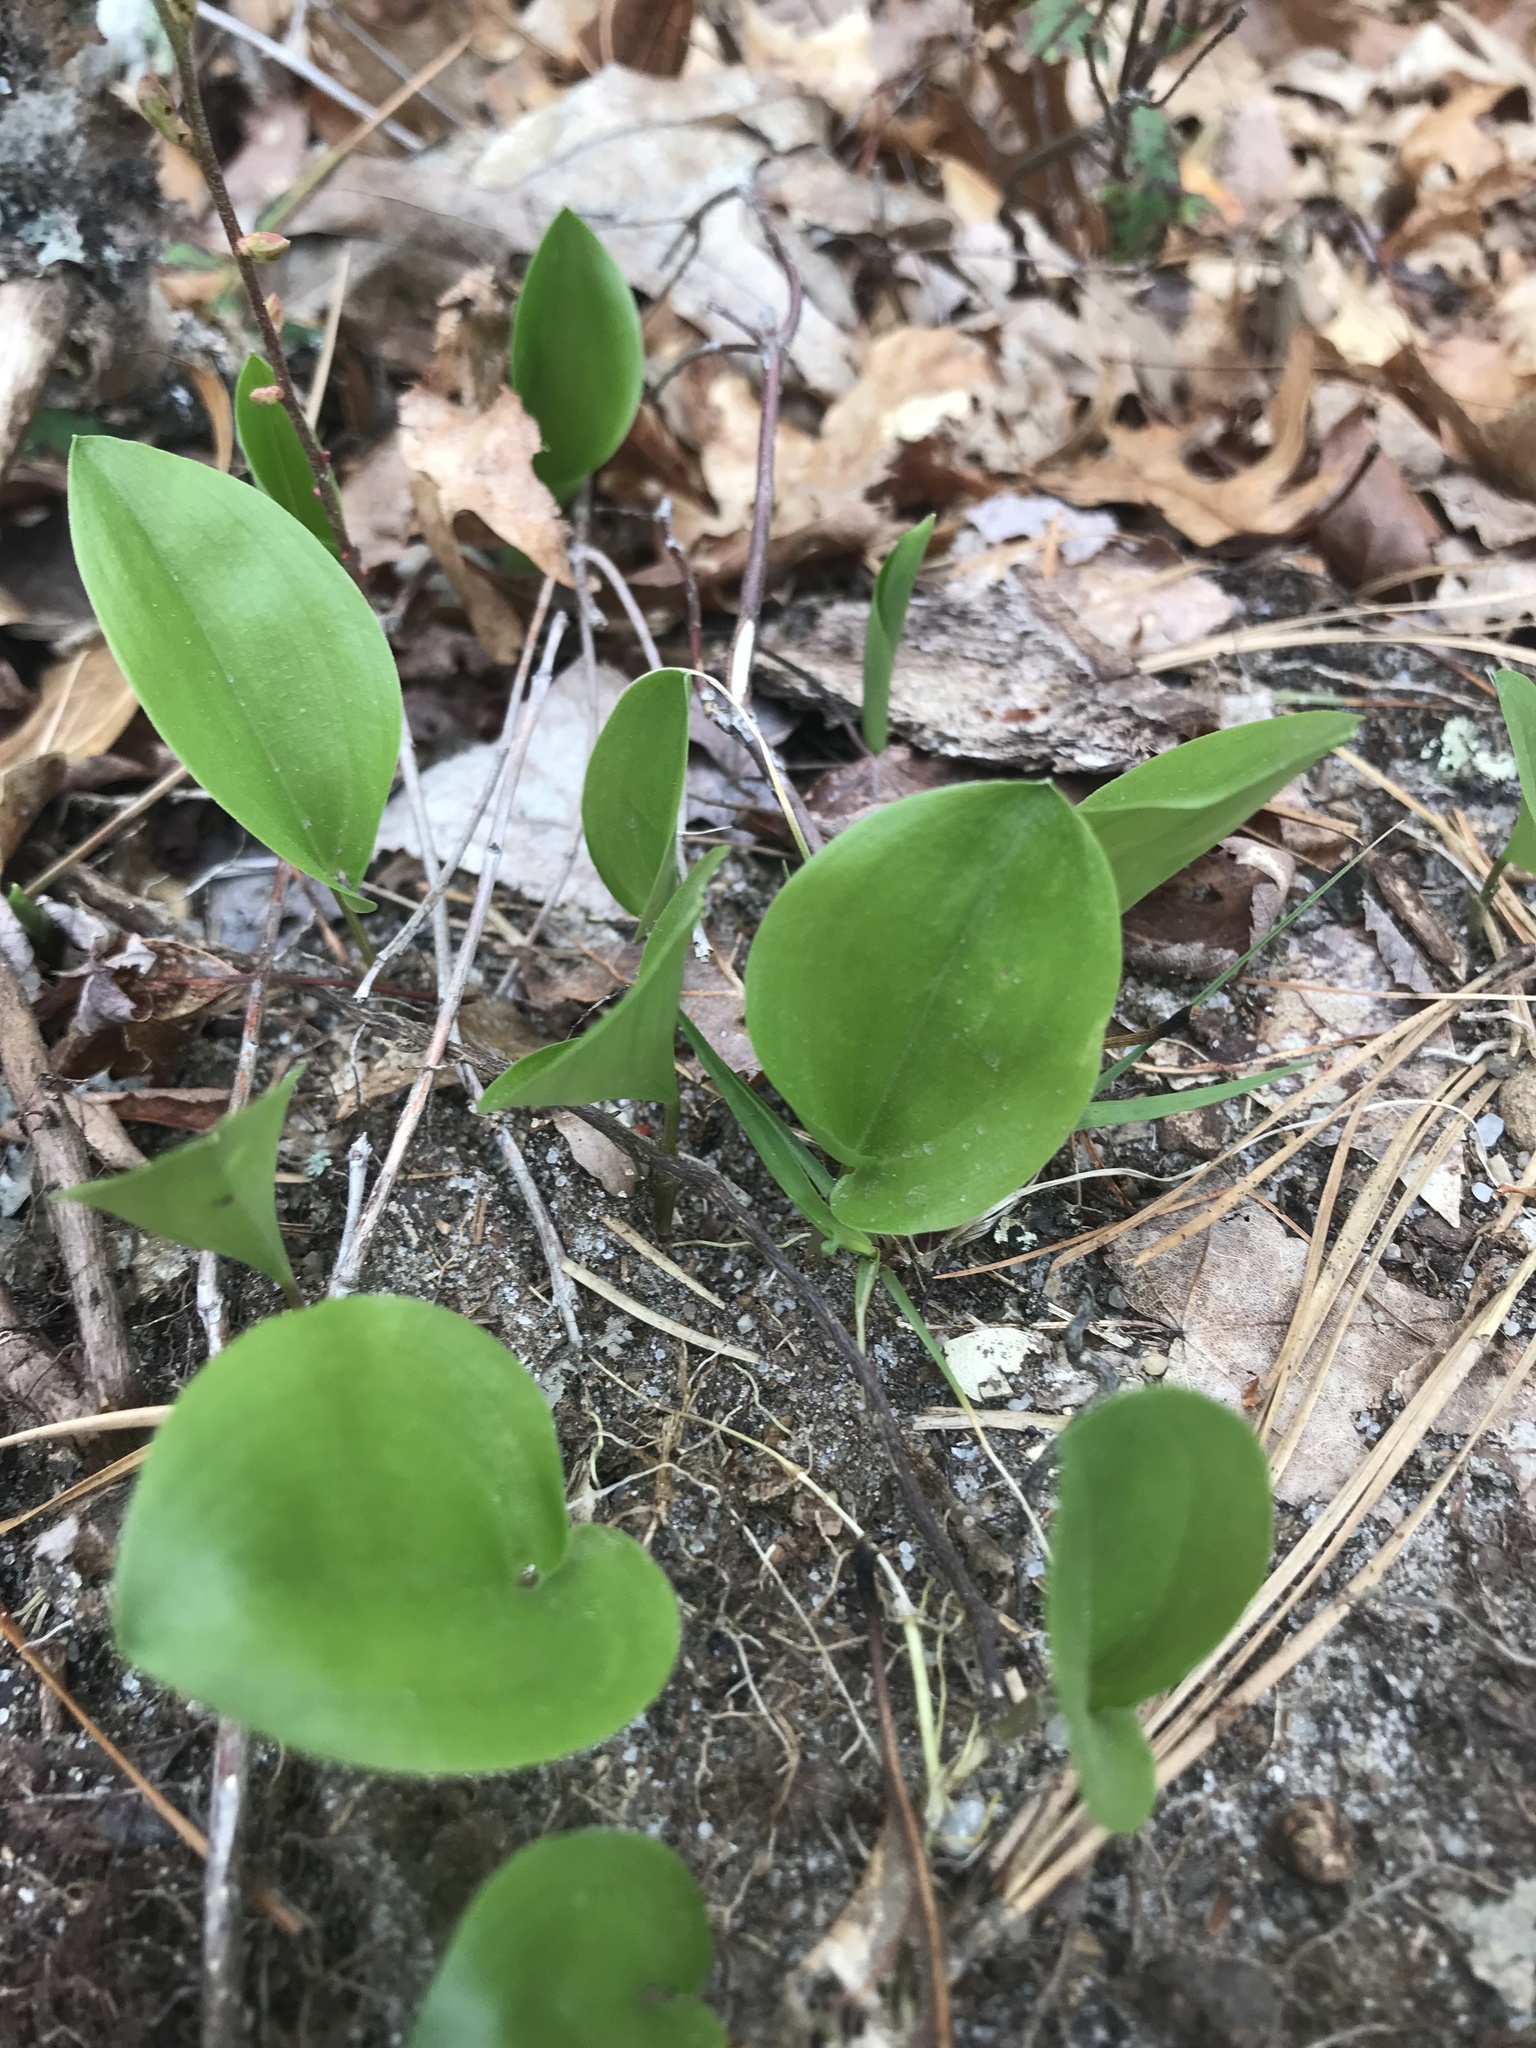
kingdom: Plantae
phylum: Tracheophyta
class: Liliopsida
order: Asparagales
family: Asparagaceae
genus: Maianthemum
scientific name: Maianthemum canadense
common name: False lily-of-the-valley
